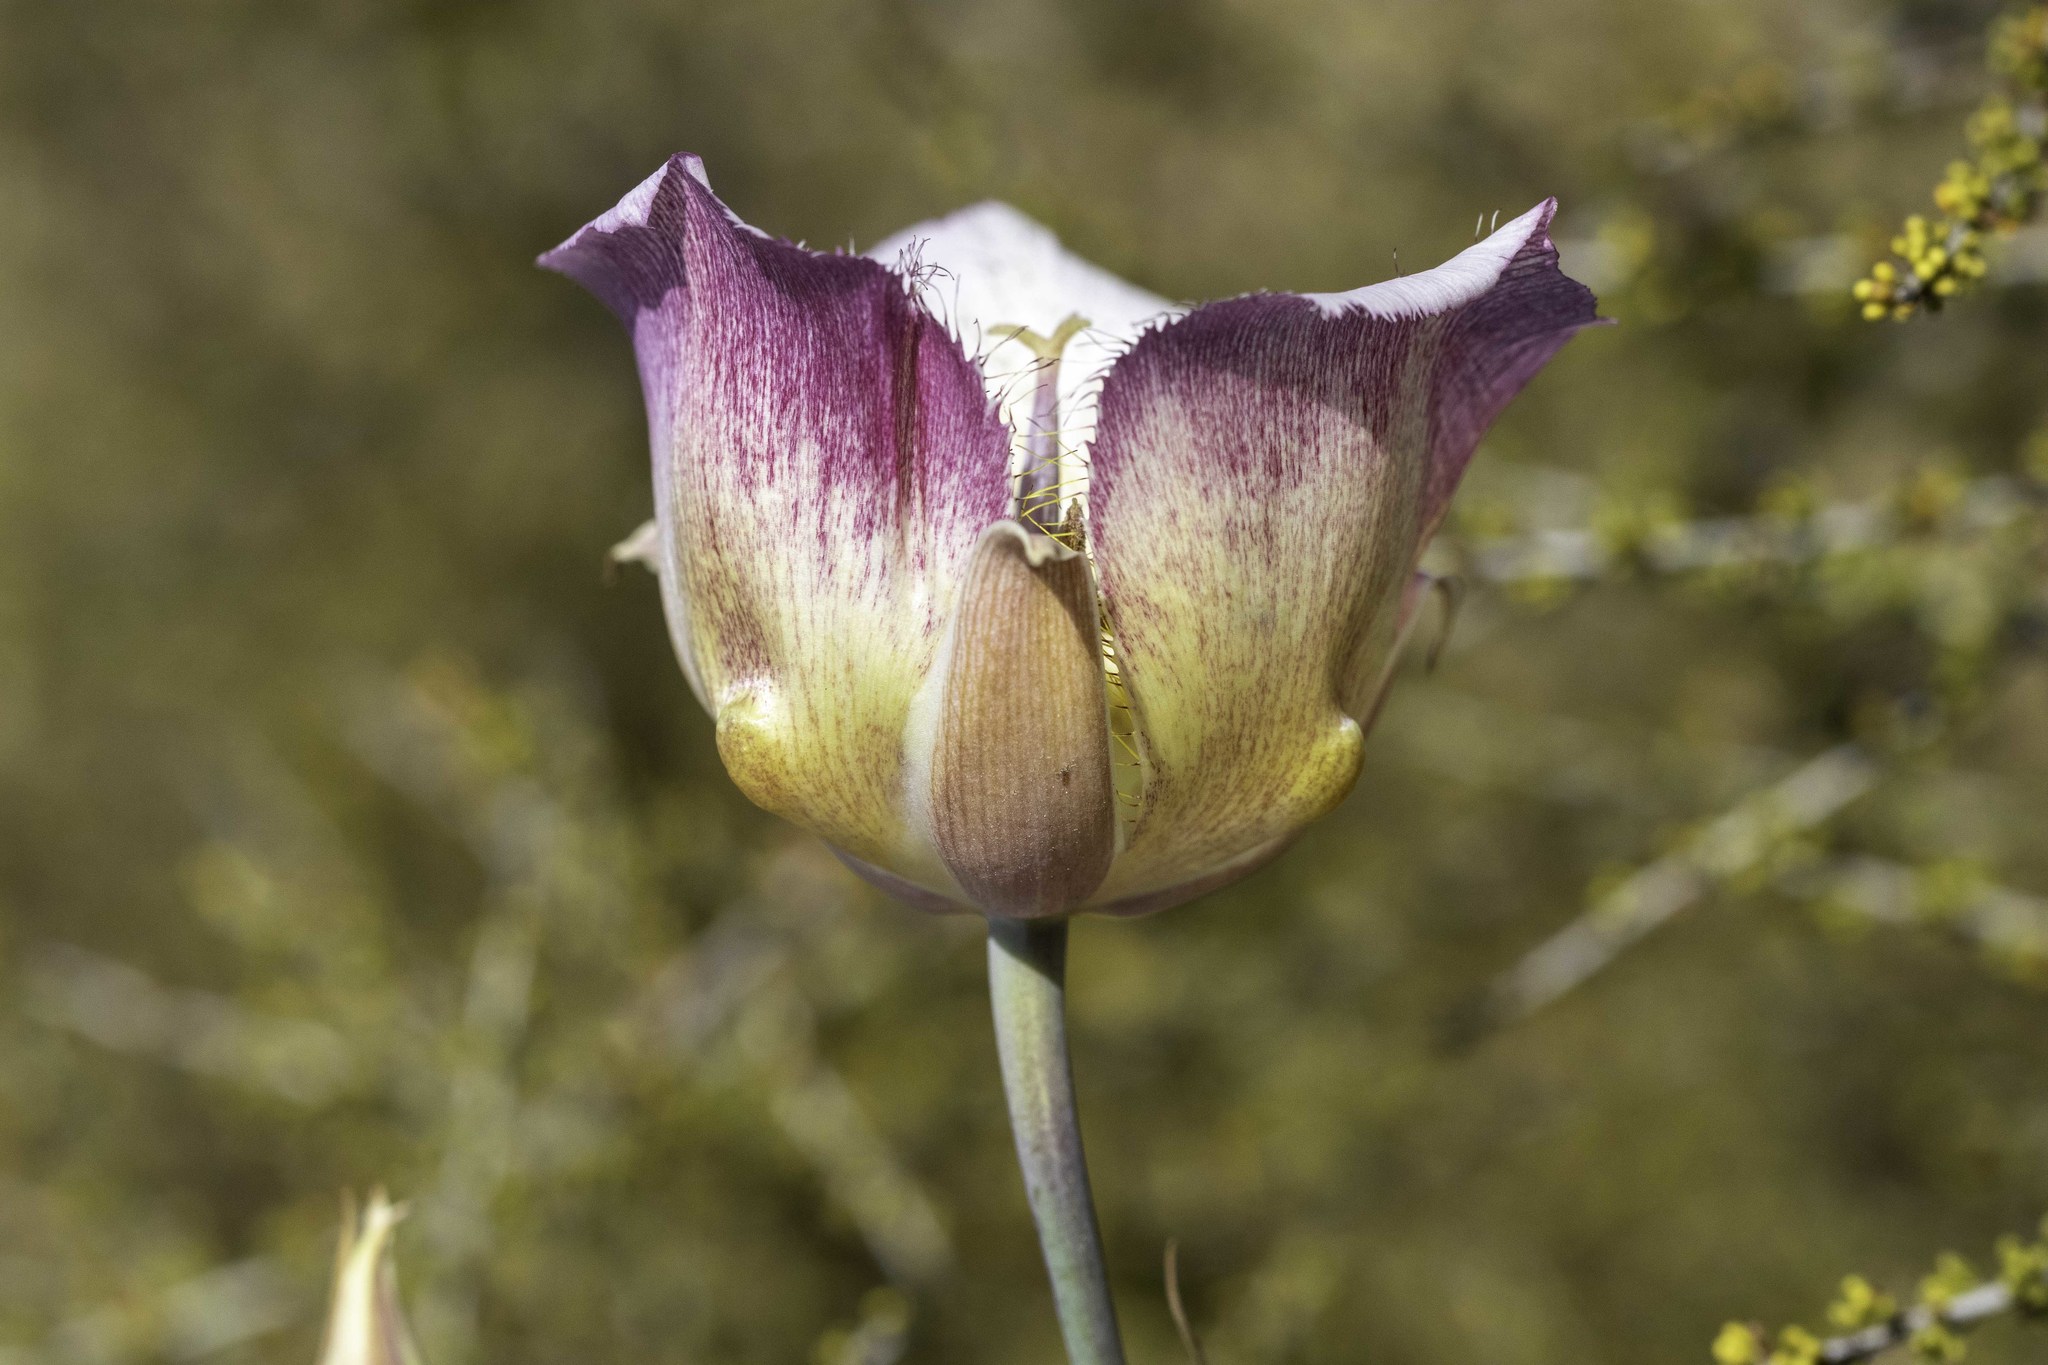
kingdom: Plantae
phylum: Tracheophyta
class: Liliopsida
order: Liliales
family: Liliaceae
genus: Calochortus
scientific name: Calochortus plummerae
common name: Plummer's mariposa-lily
